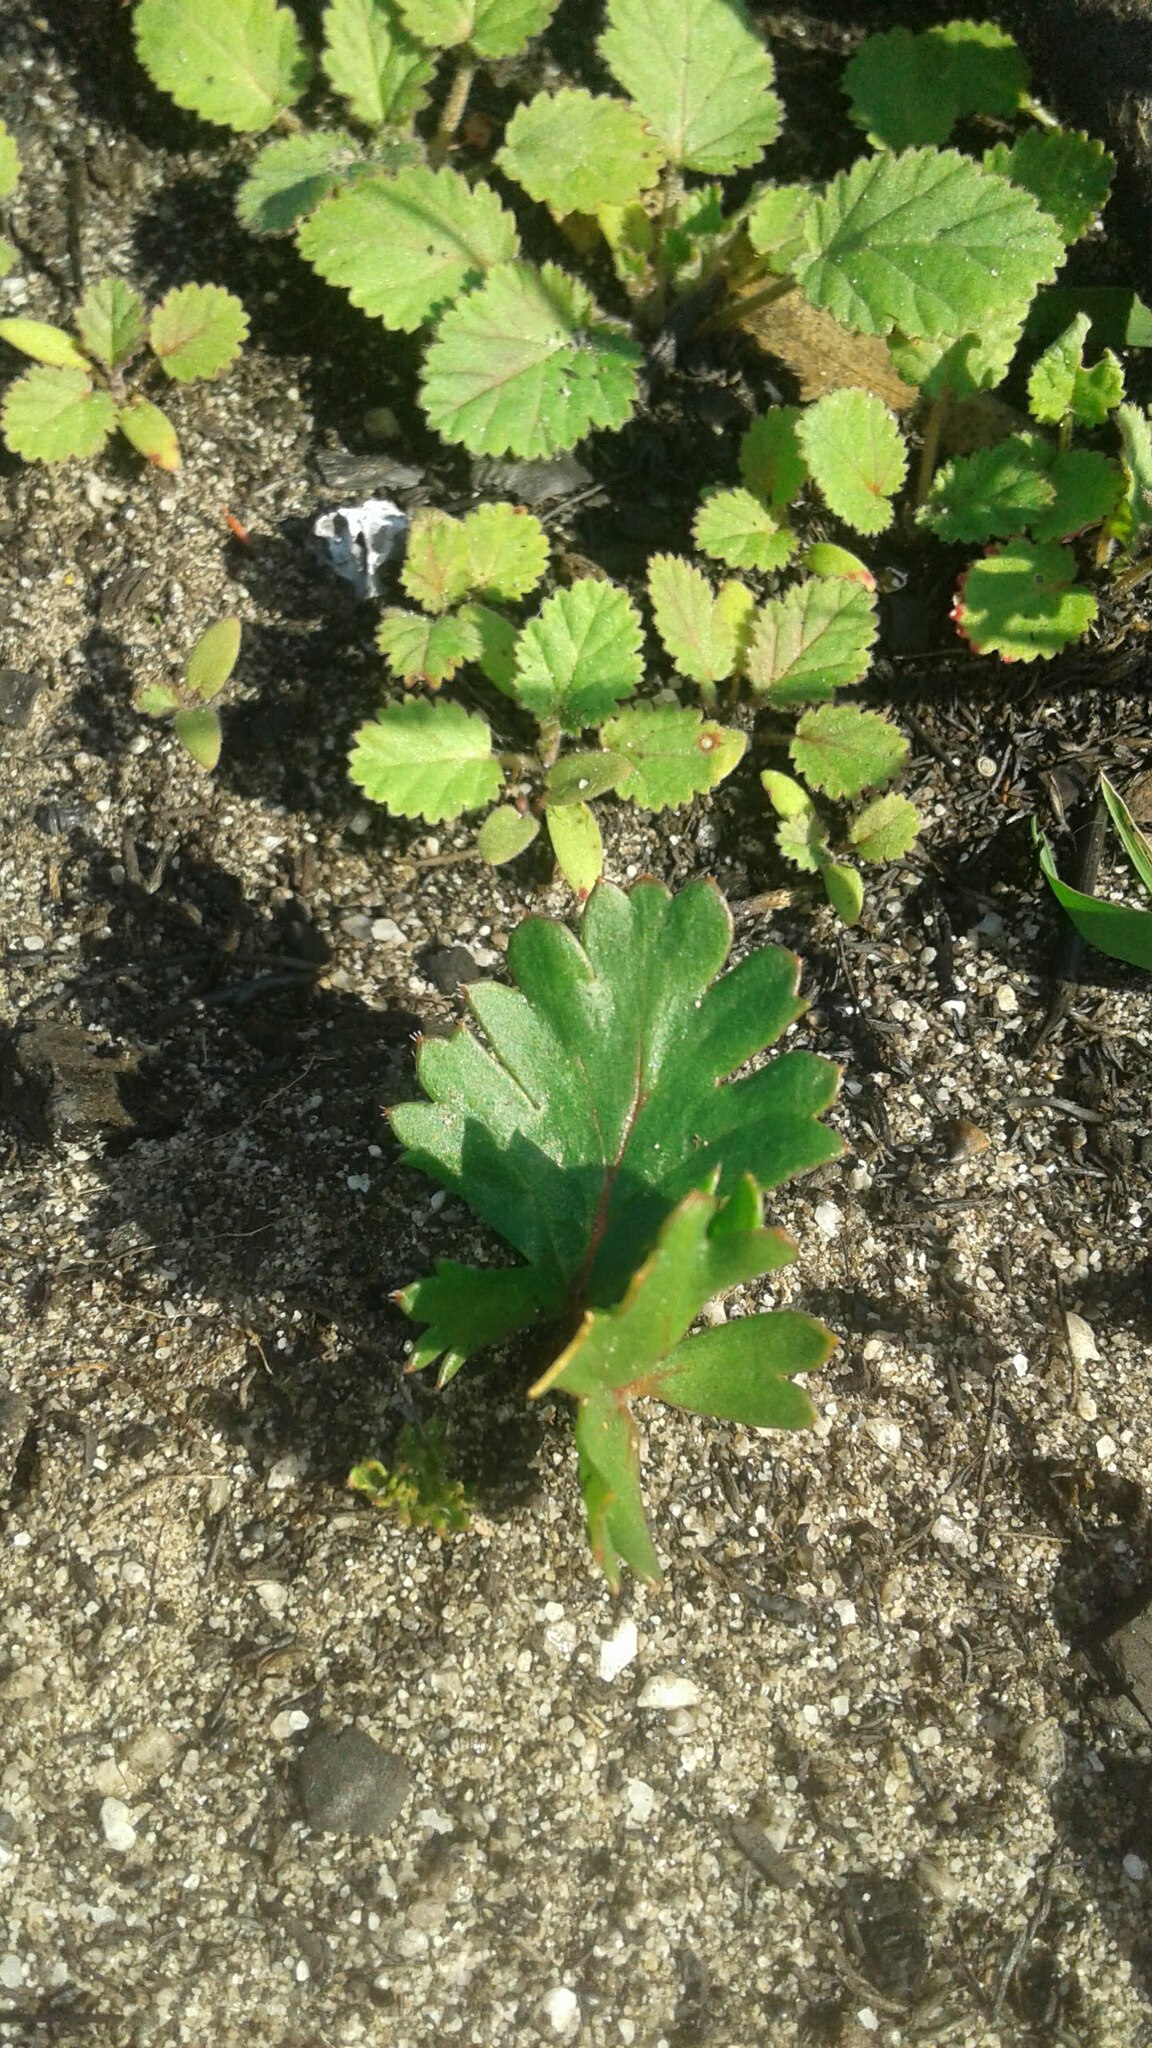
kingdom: Plantae
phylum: Tracheophyta
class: Magnoliopsida
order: Geraniales
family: Geraniaceae
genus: Pelargonium
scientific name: Pelargonium triste
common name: Night-scent pelargonium
